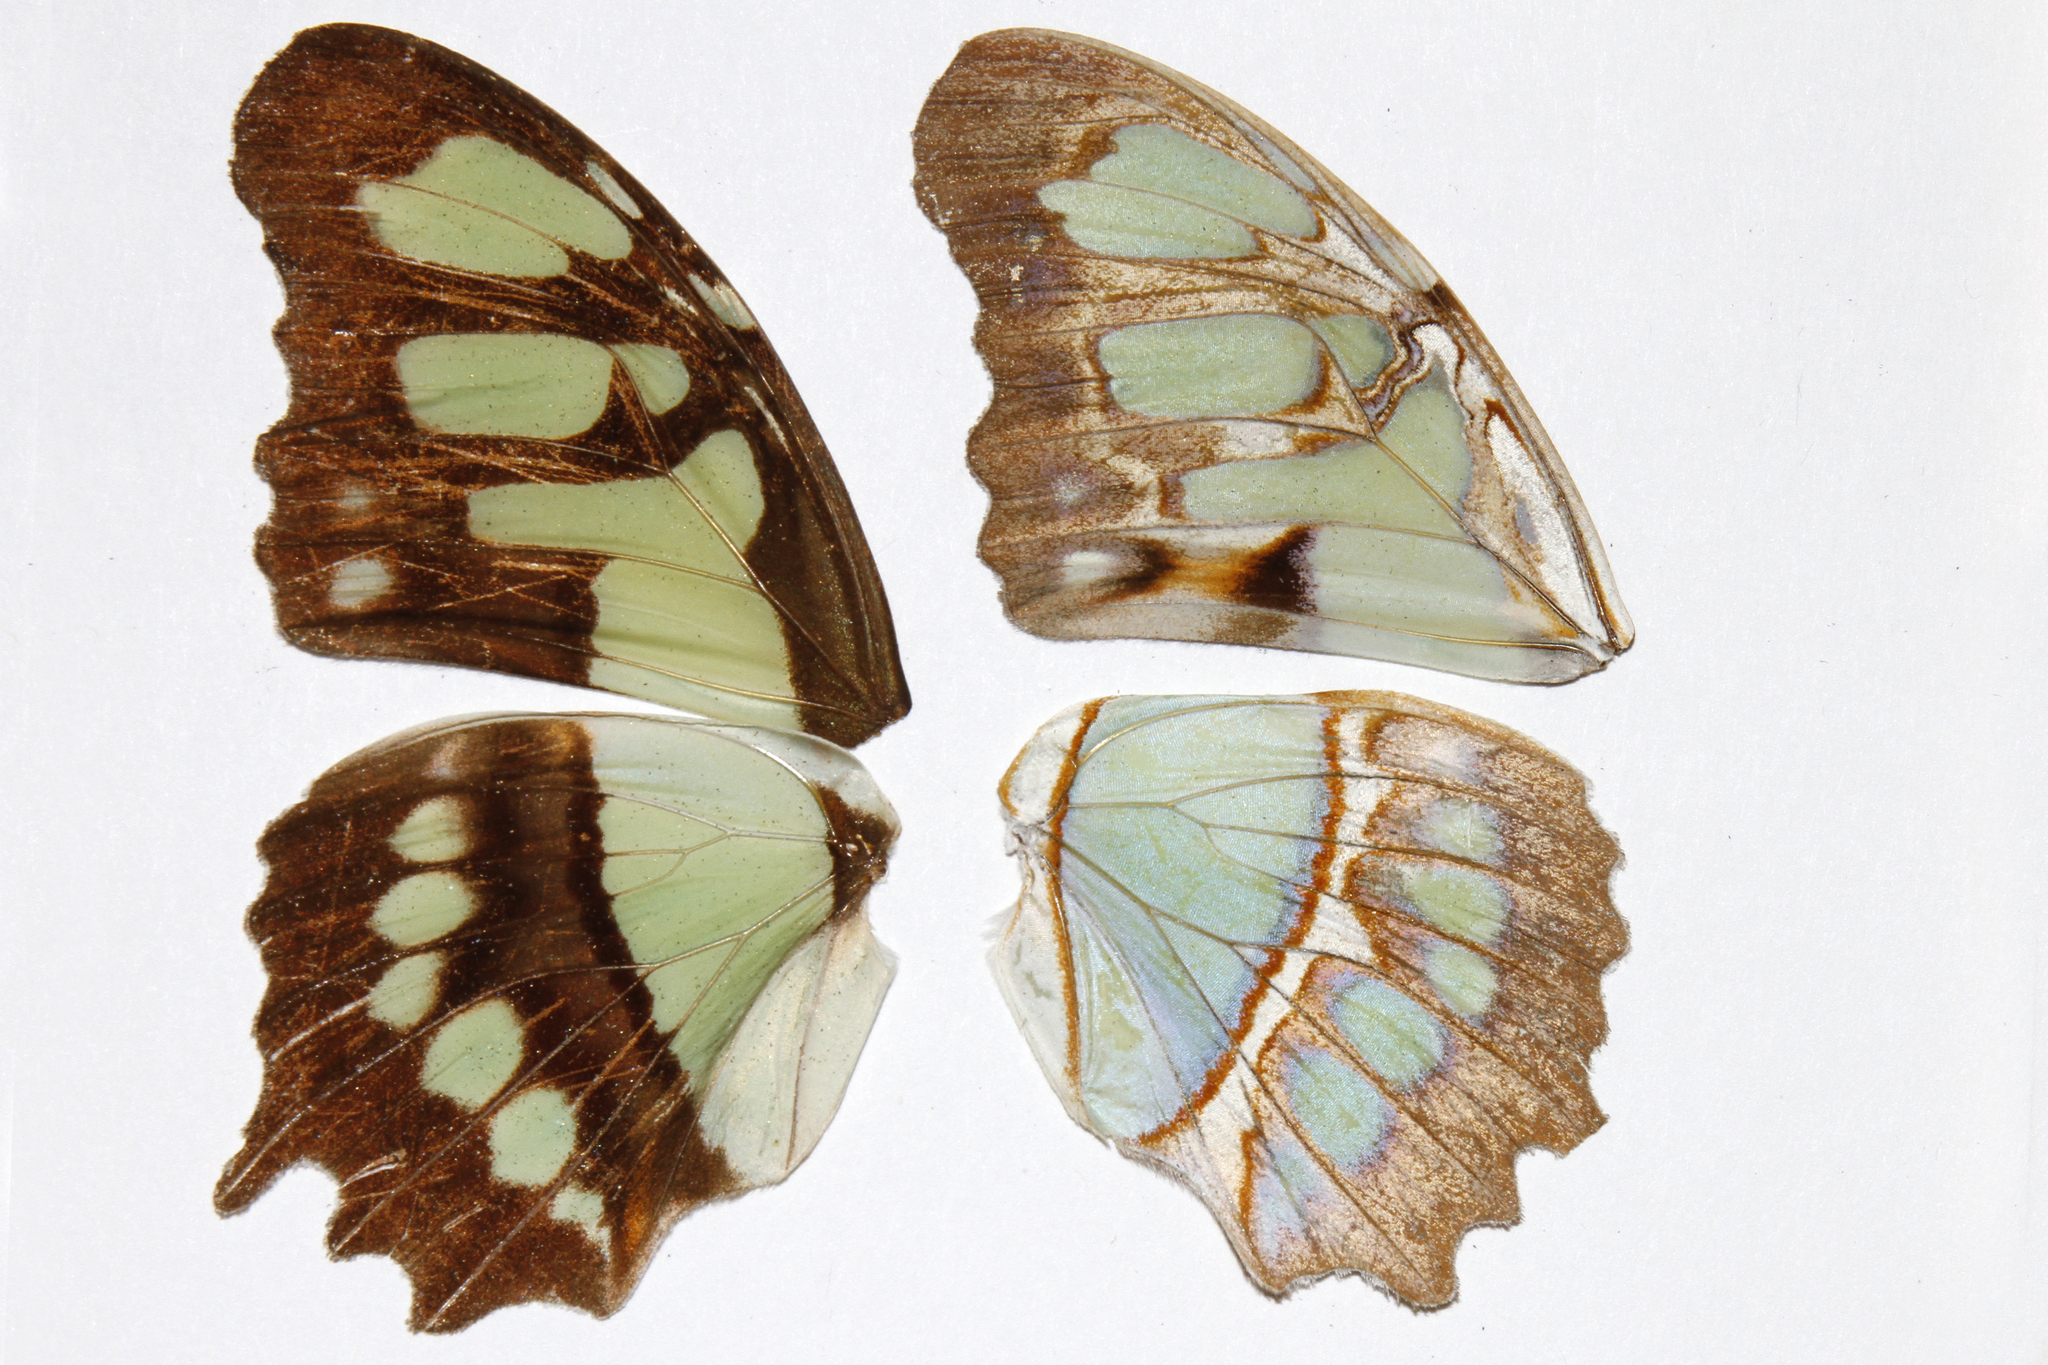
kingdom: Animalia
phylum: Arthropoda
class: Insecta
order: Lepidoptera
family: Nymphalidae
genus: Siproeta
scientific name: Siproeta stelenes
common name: Malachite
